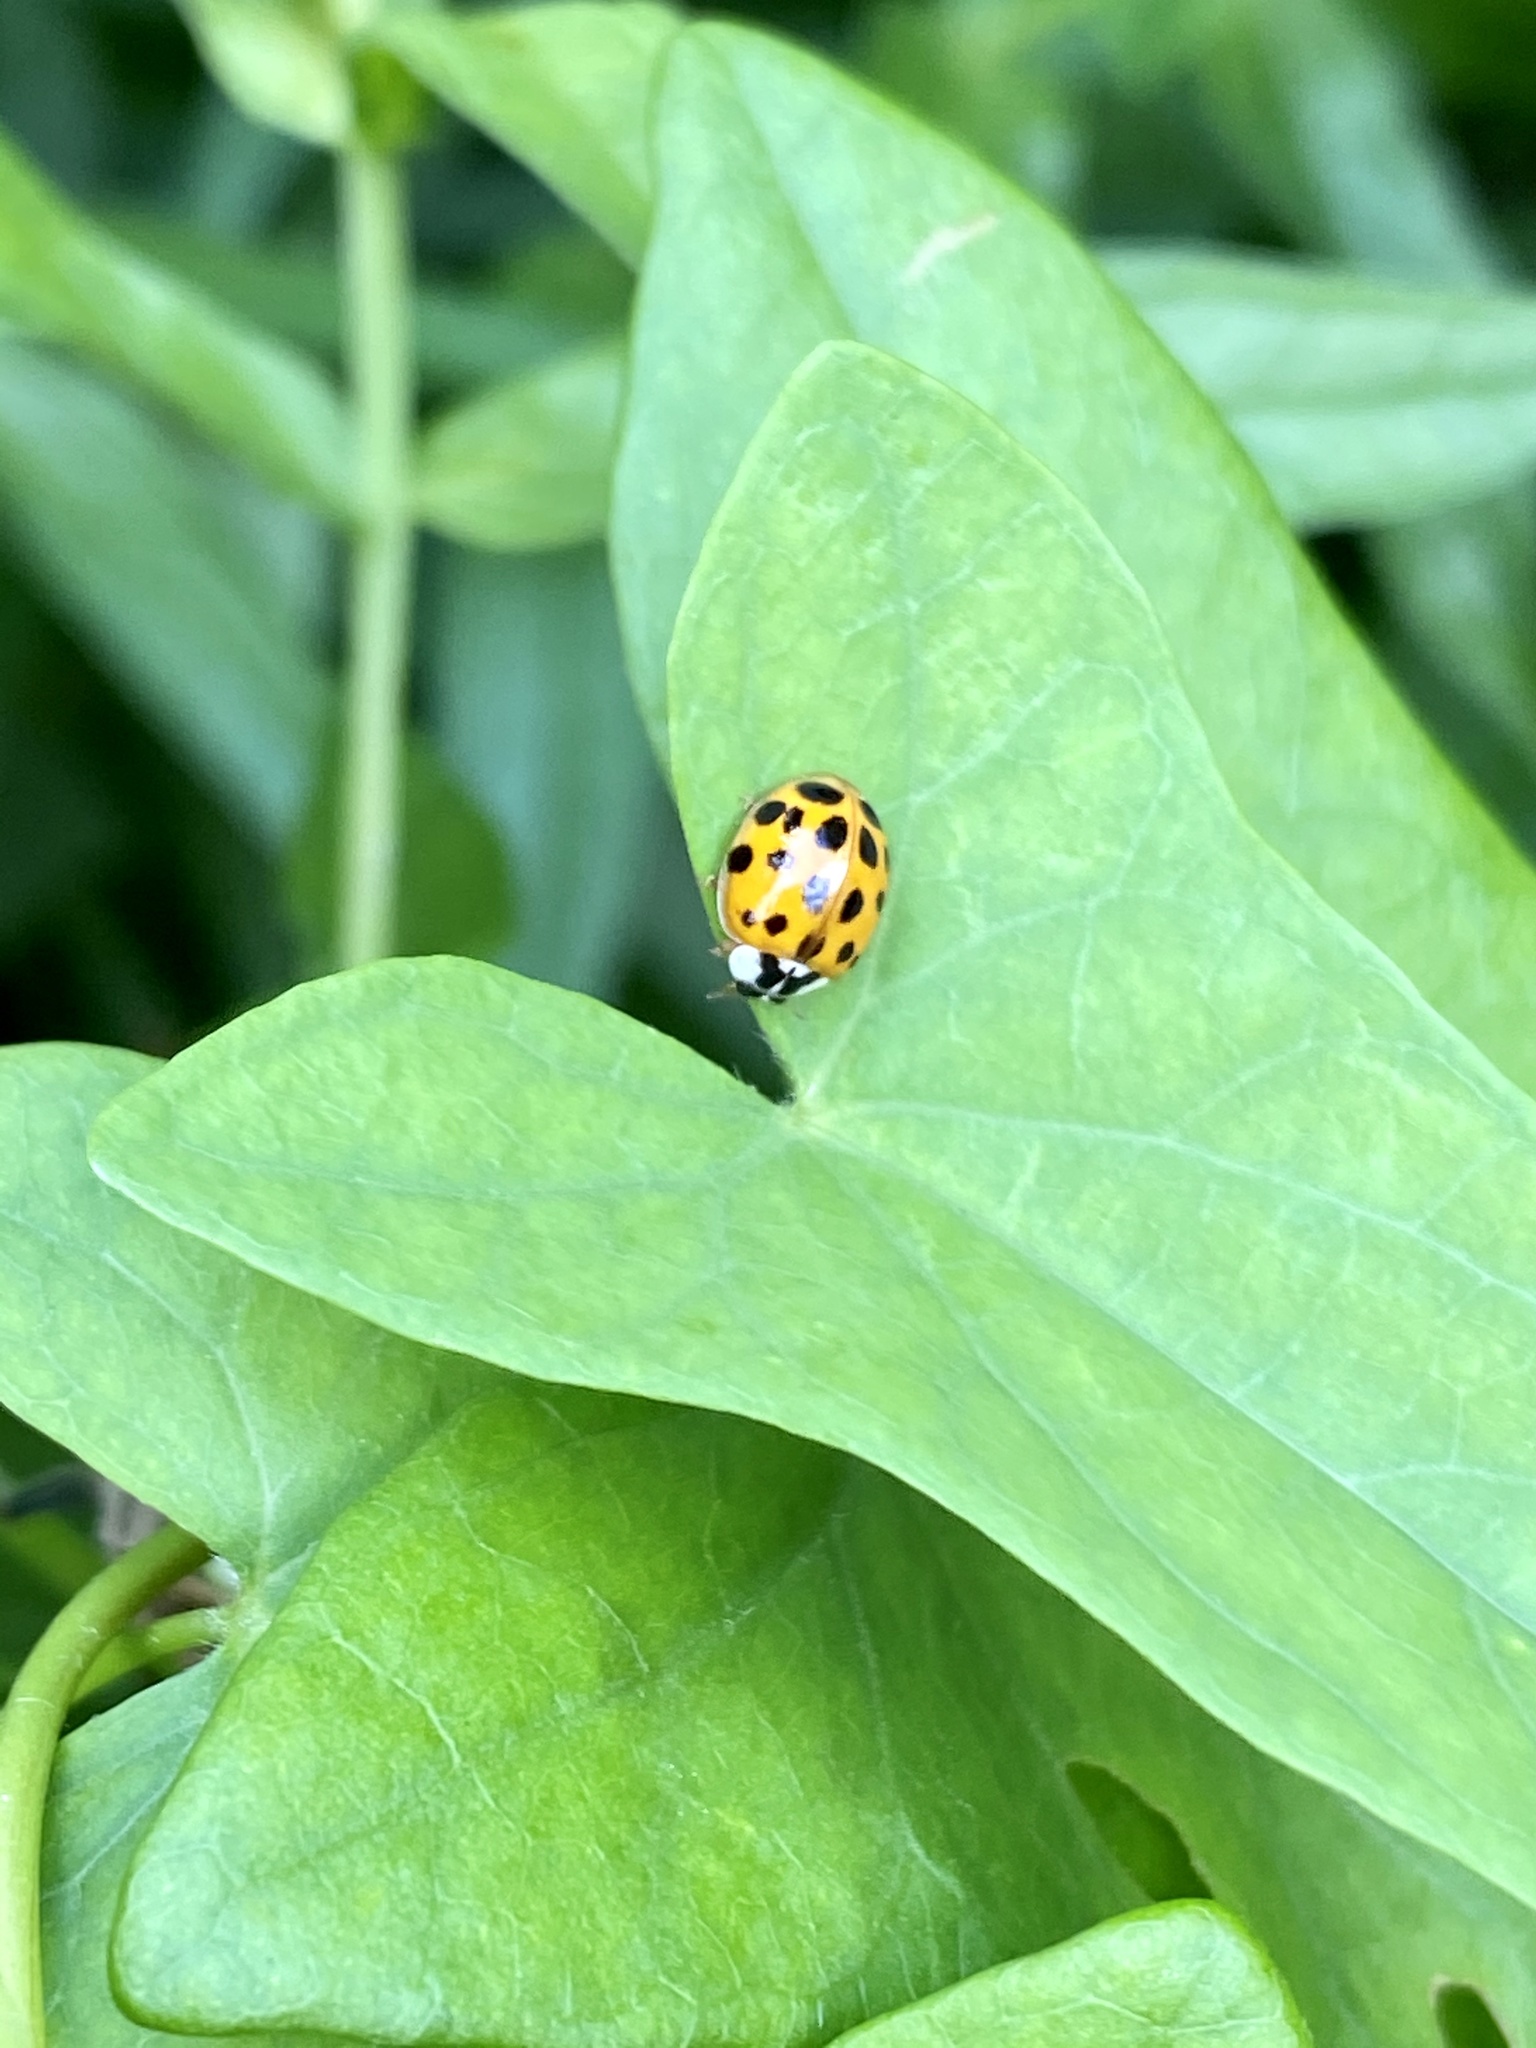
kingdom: Animalia
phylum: Arthropoda
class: Insecta
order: Coleoptera
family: Coccinellidae
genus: Harmonia
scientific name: Harmonia axyridis
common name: Harlequin ladybird
